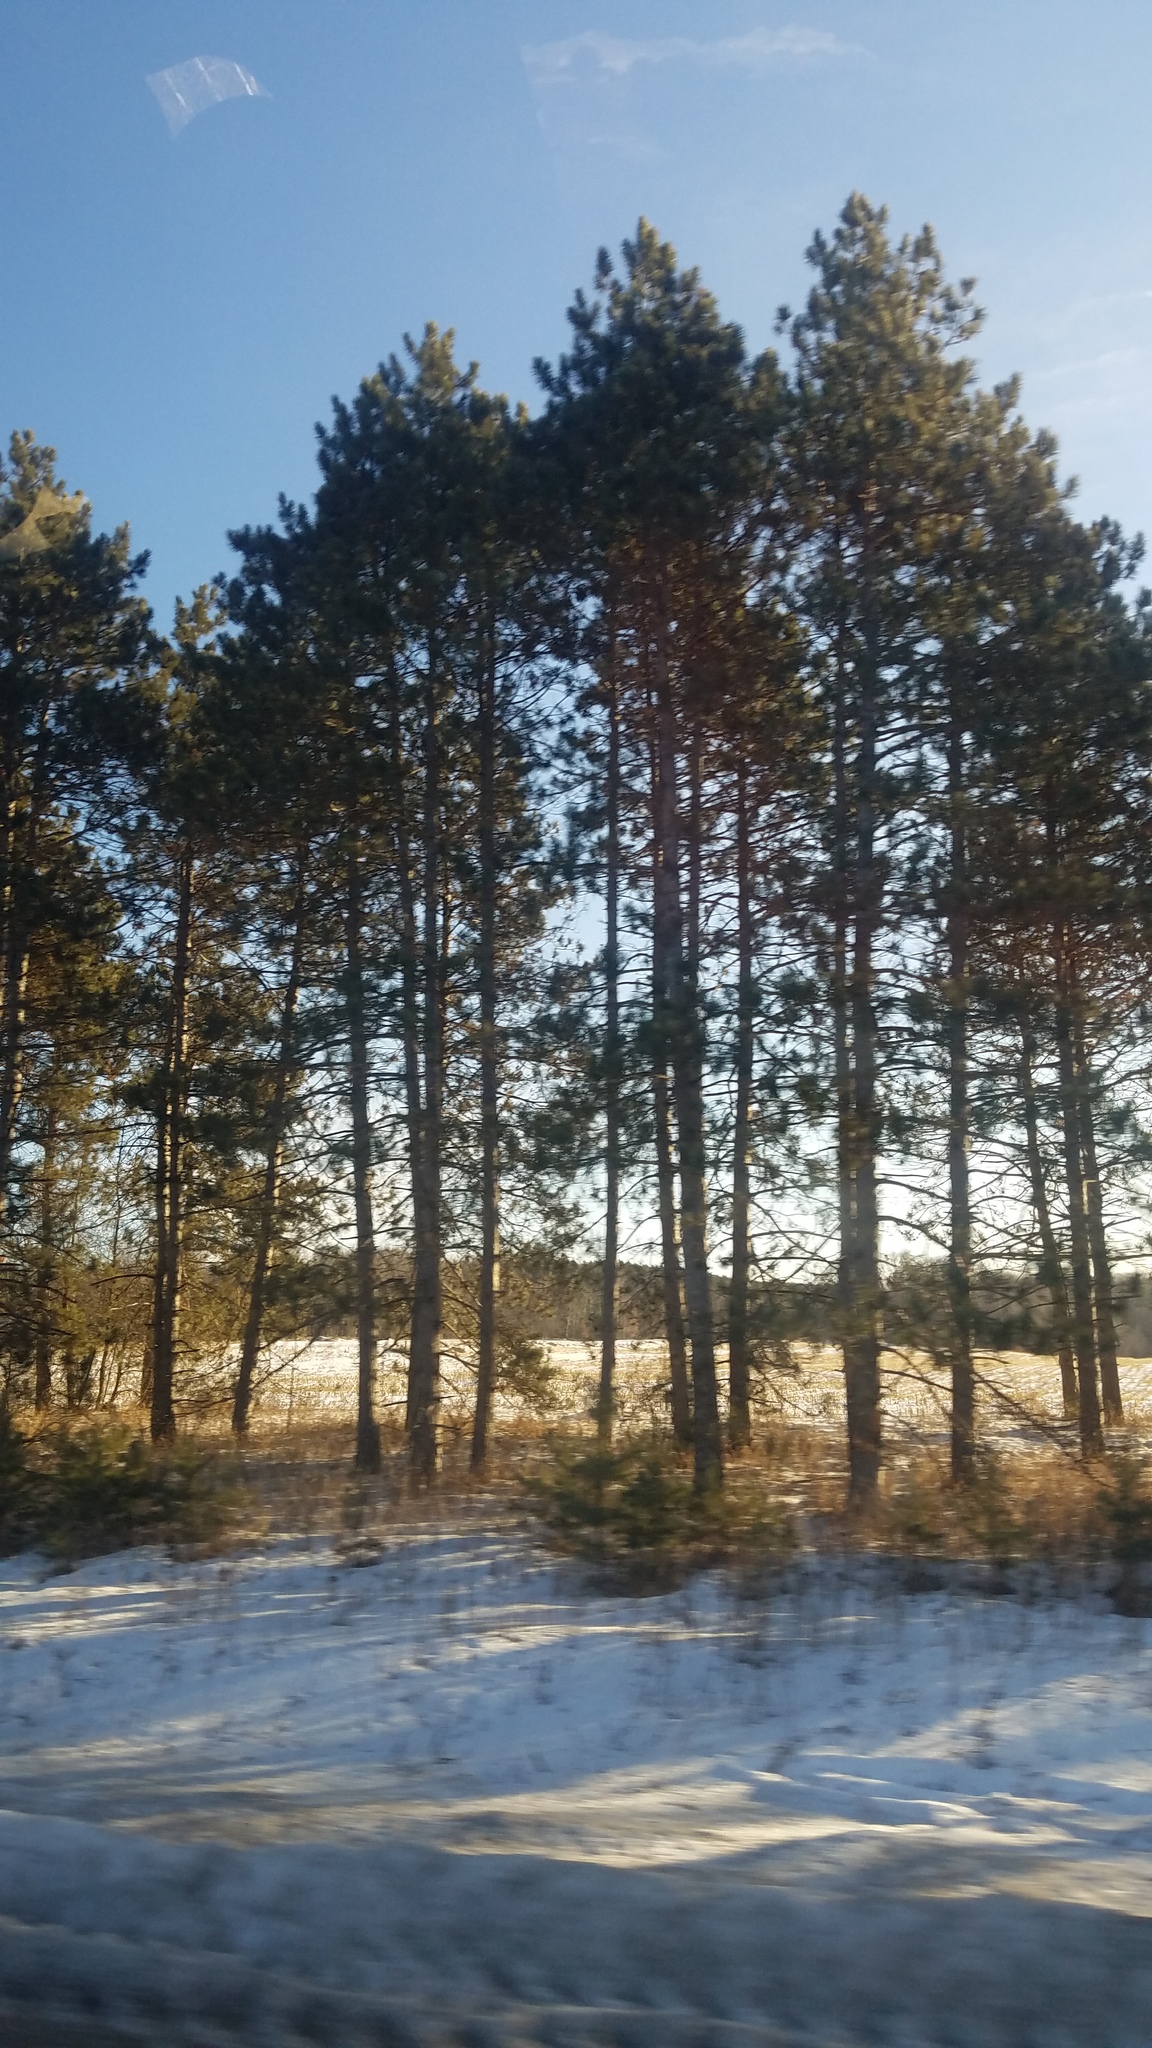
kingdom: Plantae
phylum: Tracheophyta
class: Pinopsida
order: Pinales
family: Pinaceae
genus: Pinus
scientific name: Pinus resinosa
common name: Norway pine
